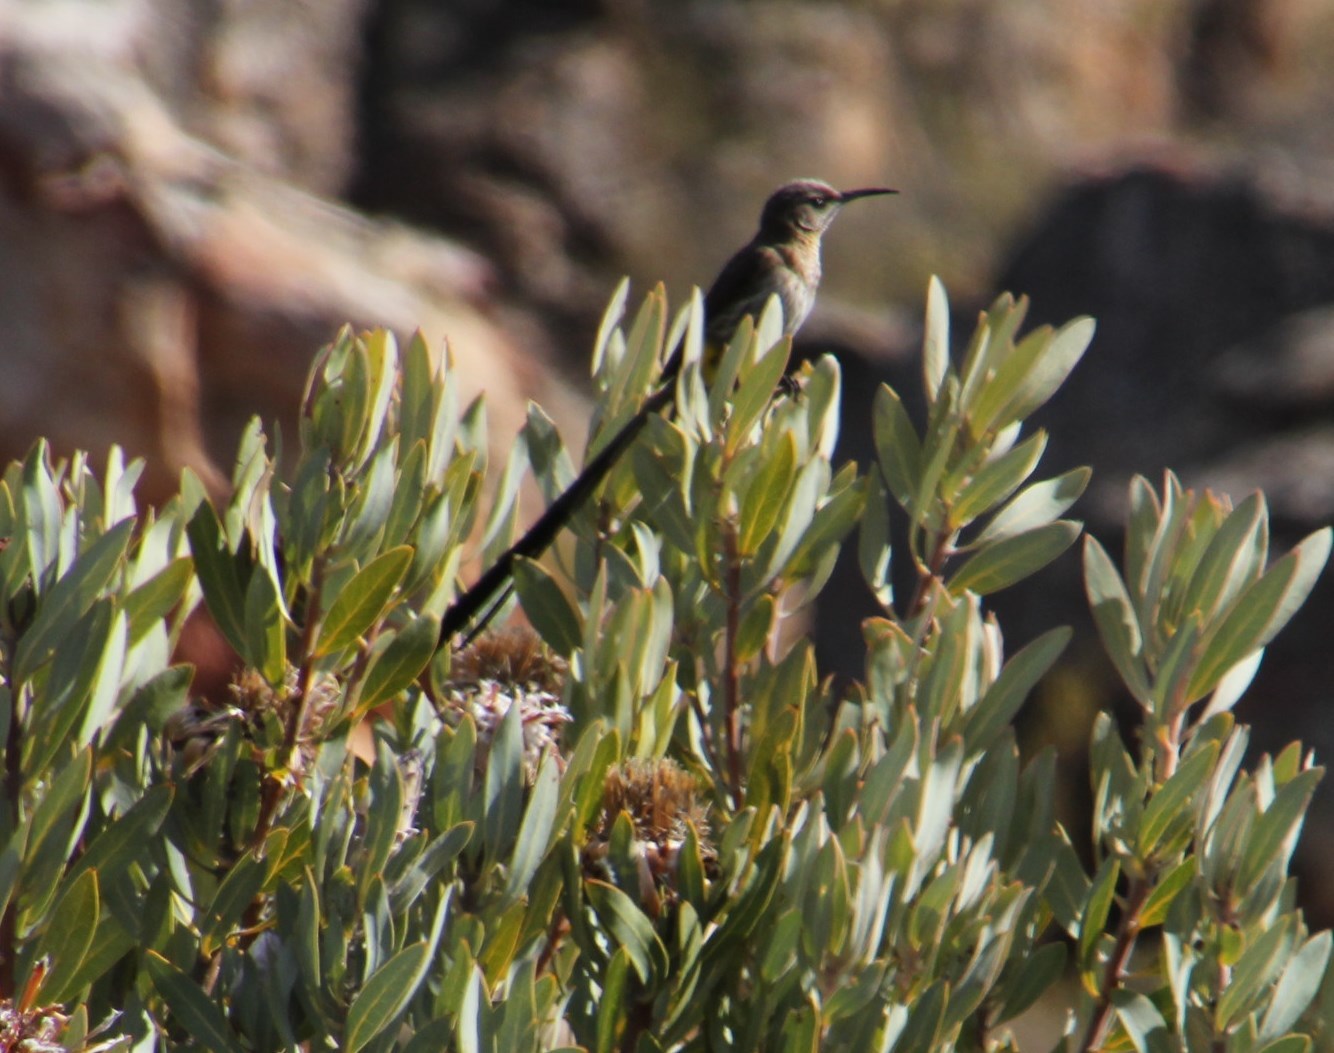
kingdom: Animalia
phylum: Chordata
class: Aves
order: Passeriformes
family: Promeropidae
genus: Promerops
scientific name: Promerops cafer
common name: Cape sugarbird
